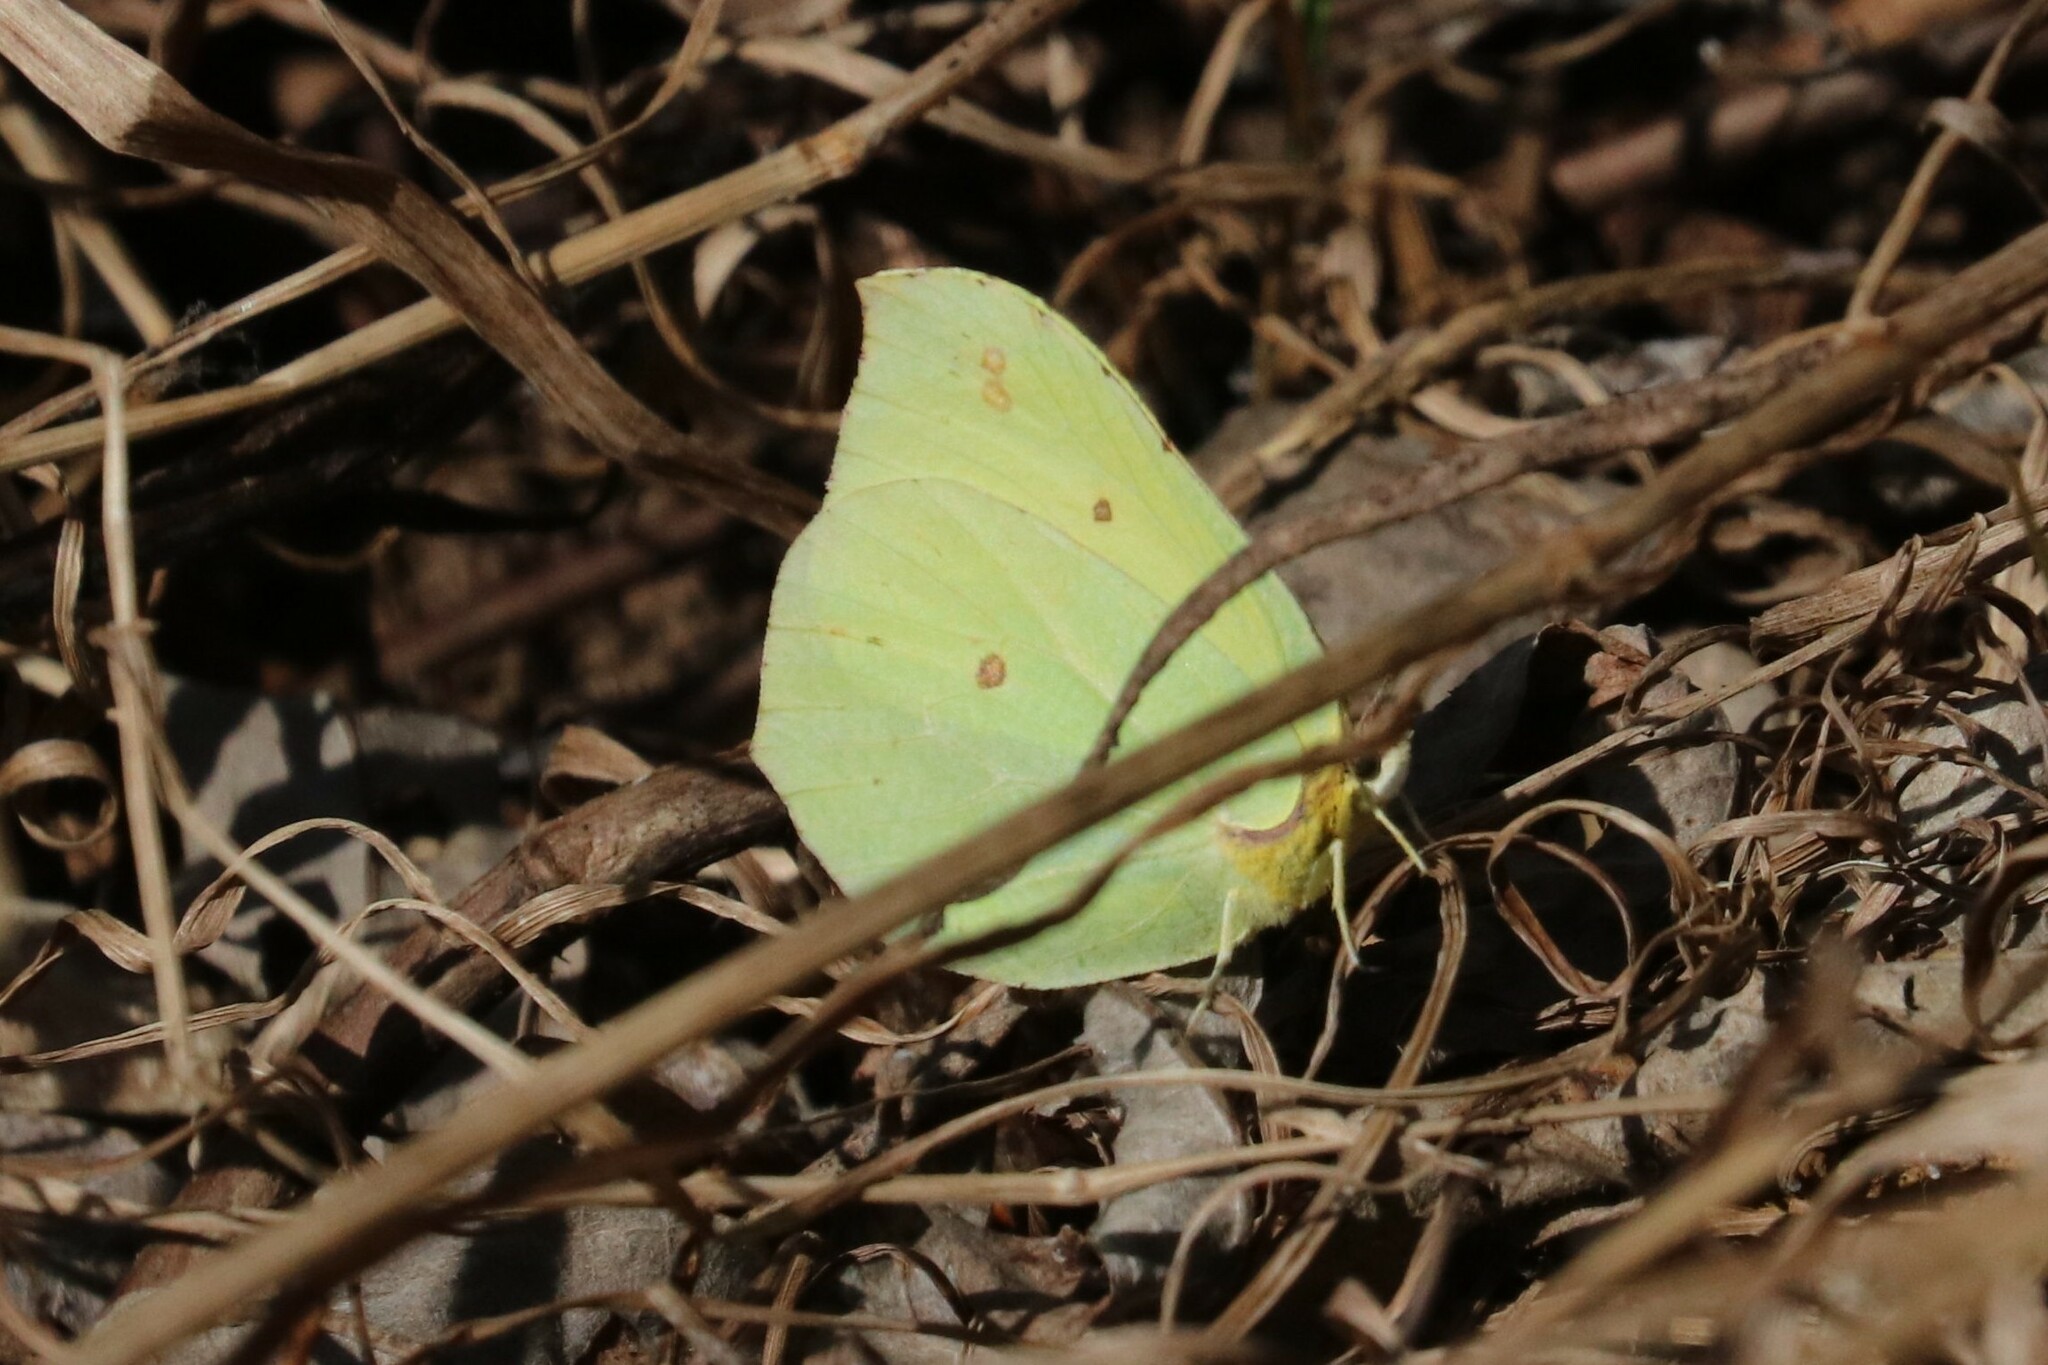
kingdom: Animalia
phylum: Arthropoda
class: Insecta
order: Lepidoptera
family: Pieridae
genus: Gonepteryx
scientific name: Gonepteryx rhamni
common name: Brimstone
